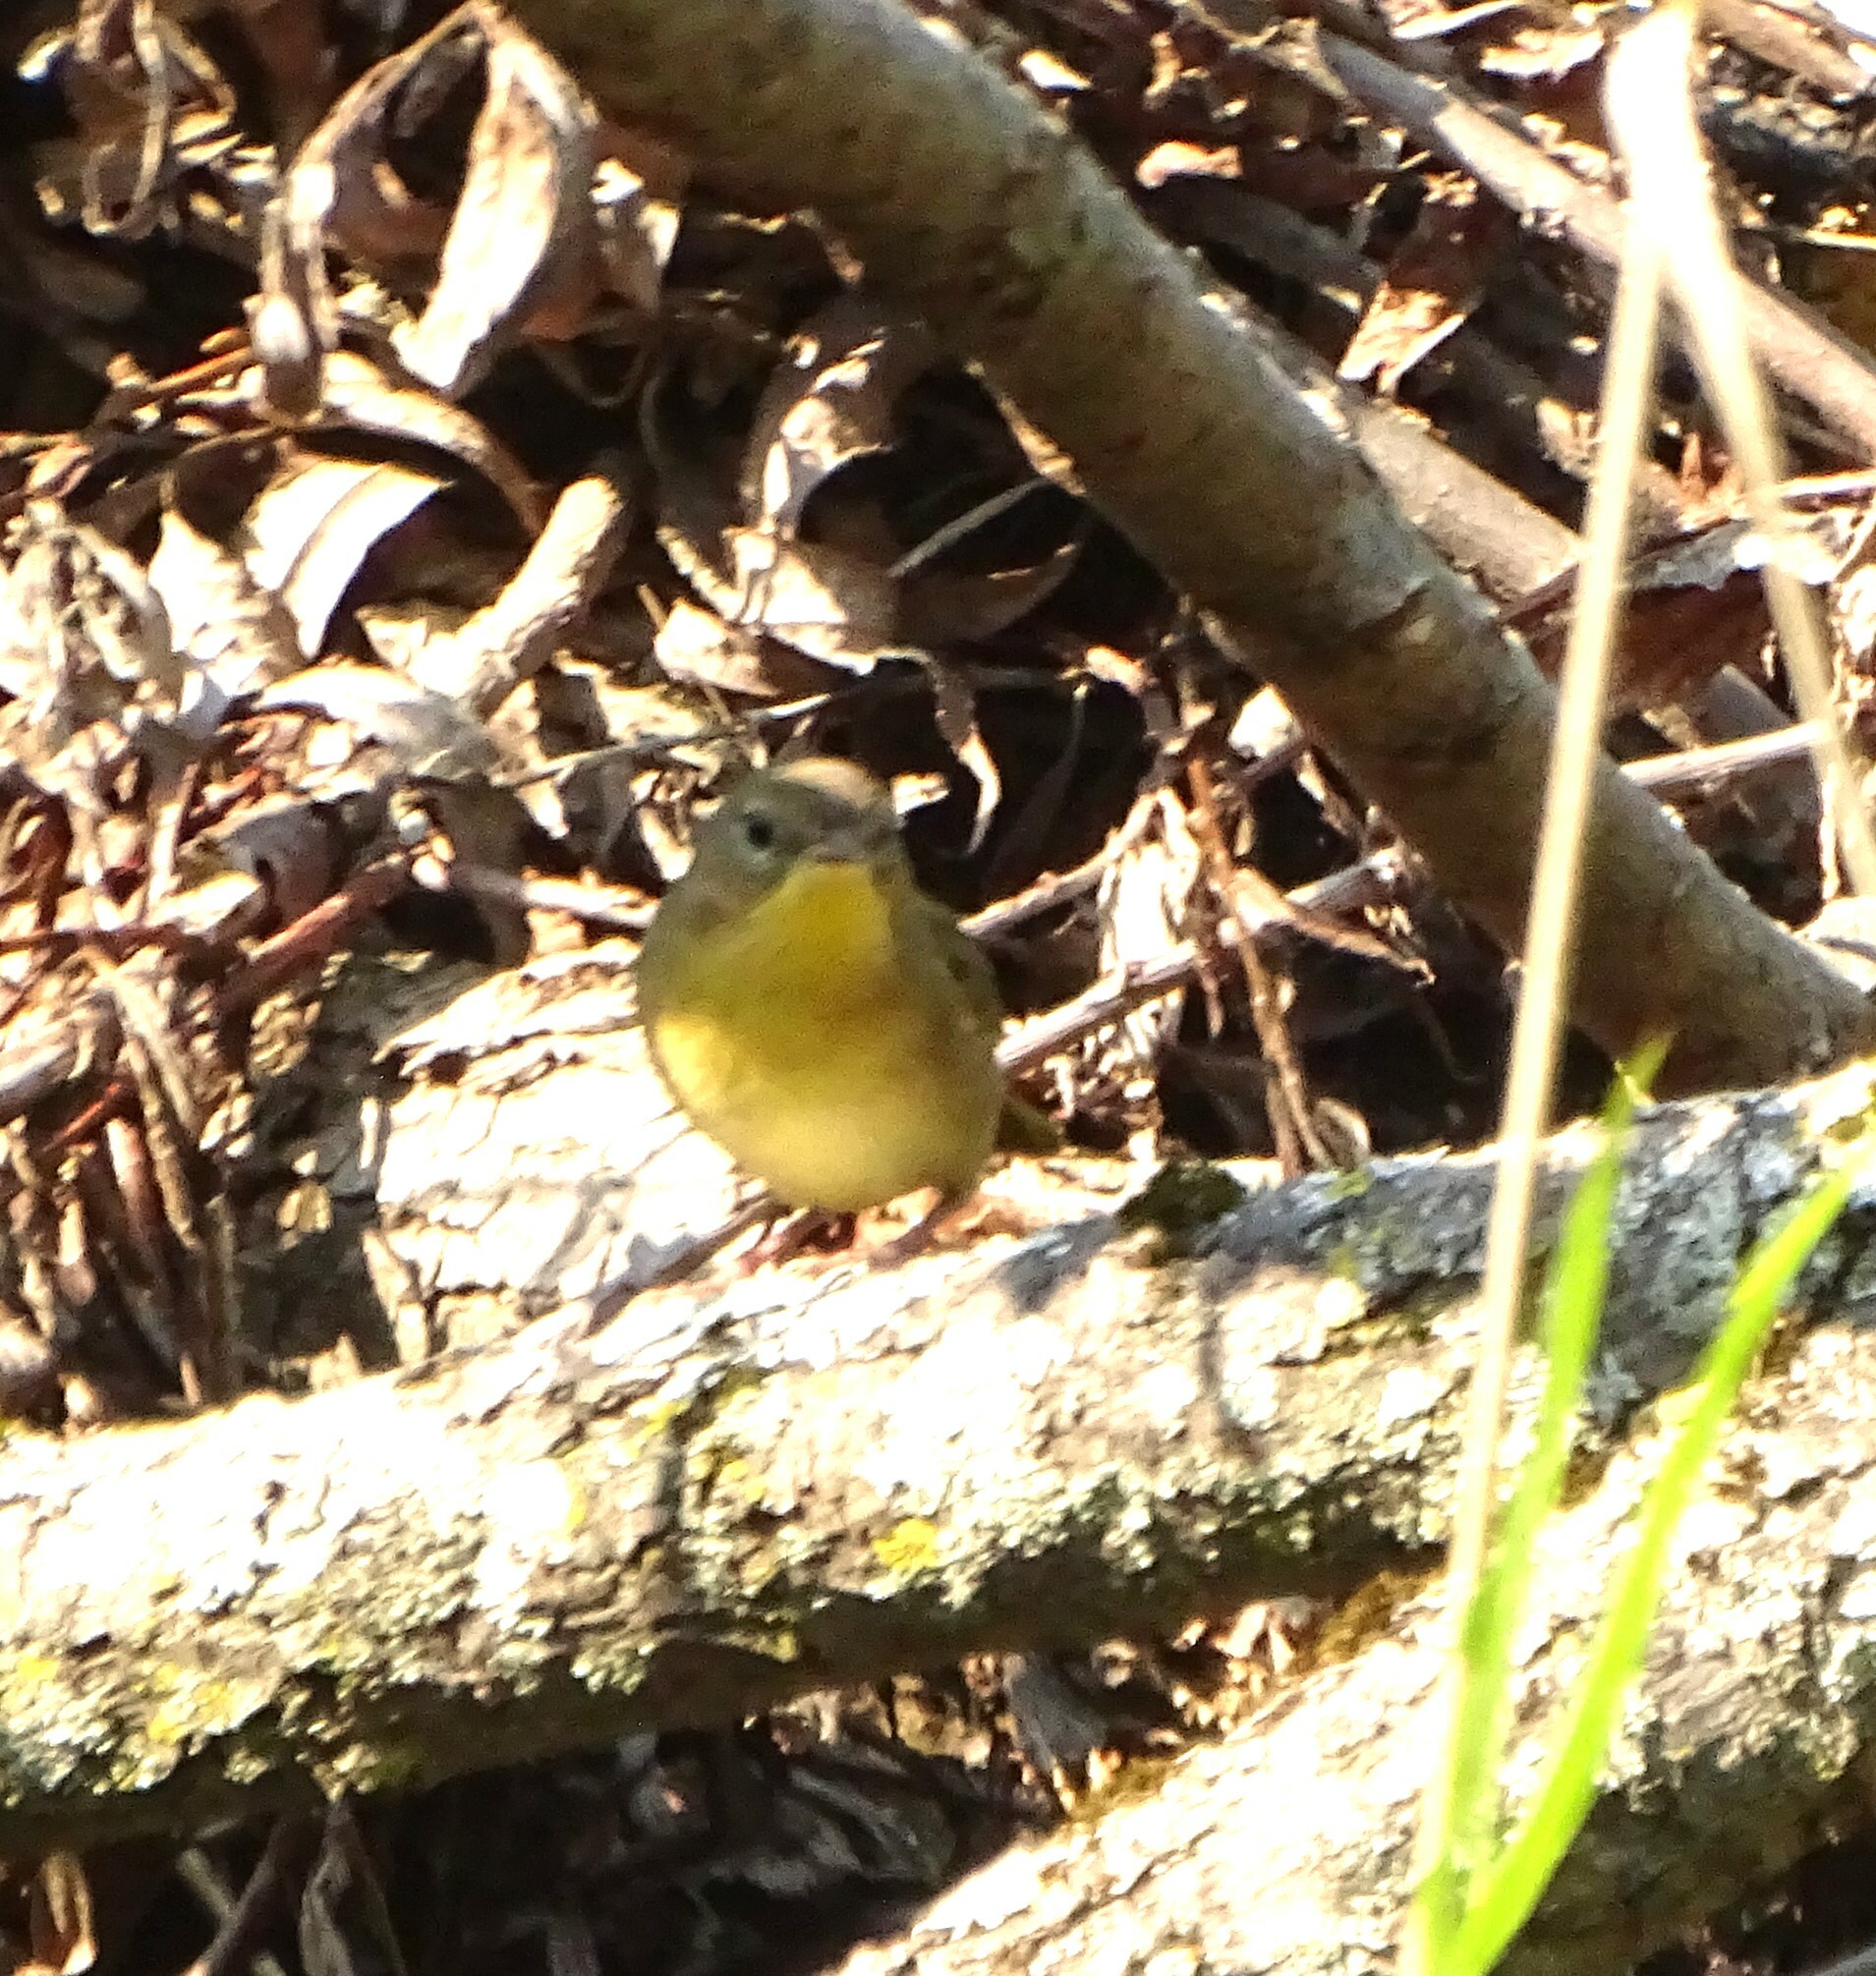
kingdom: Animalia
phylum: Chordata
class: Aves
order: Passeriformes
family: Parulidae
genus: Geothlypis
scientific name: Geothlypis trichas
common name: Common yellowthroat
